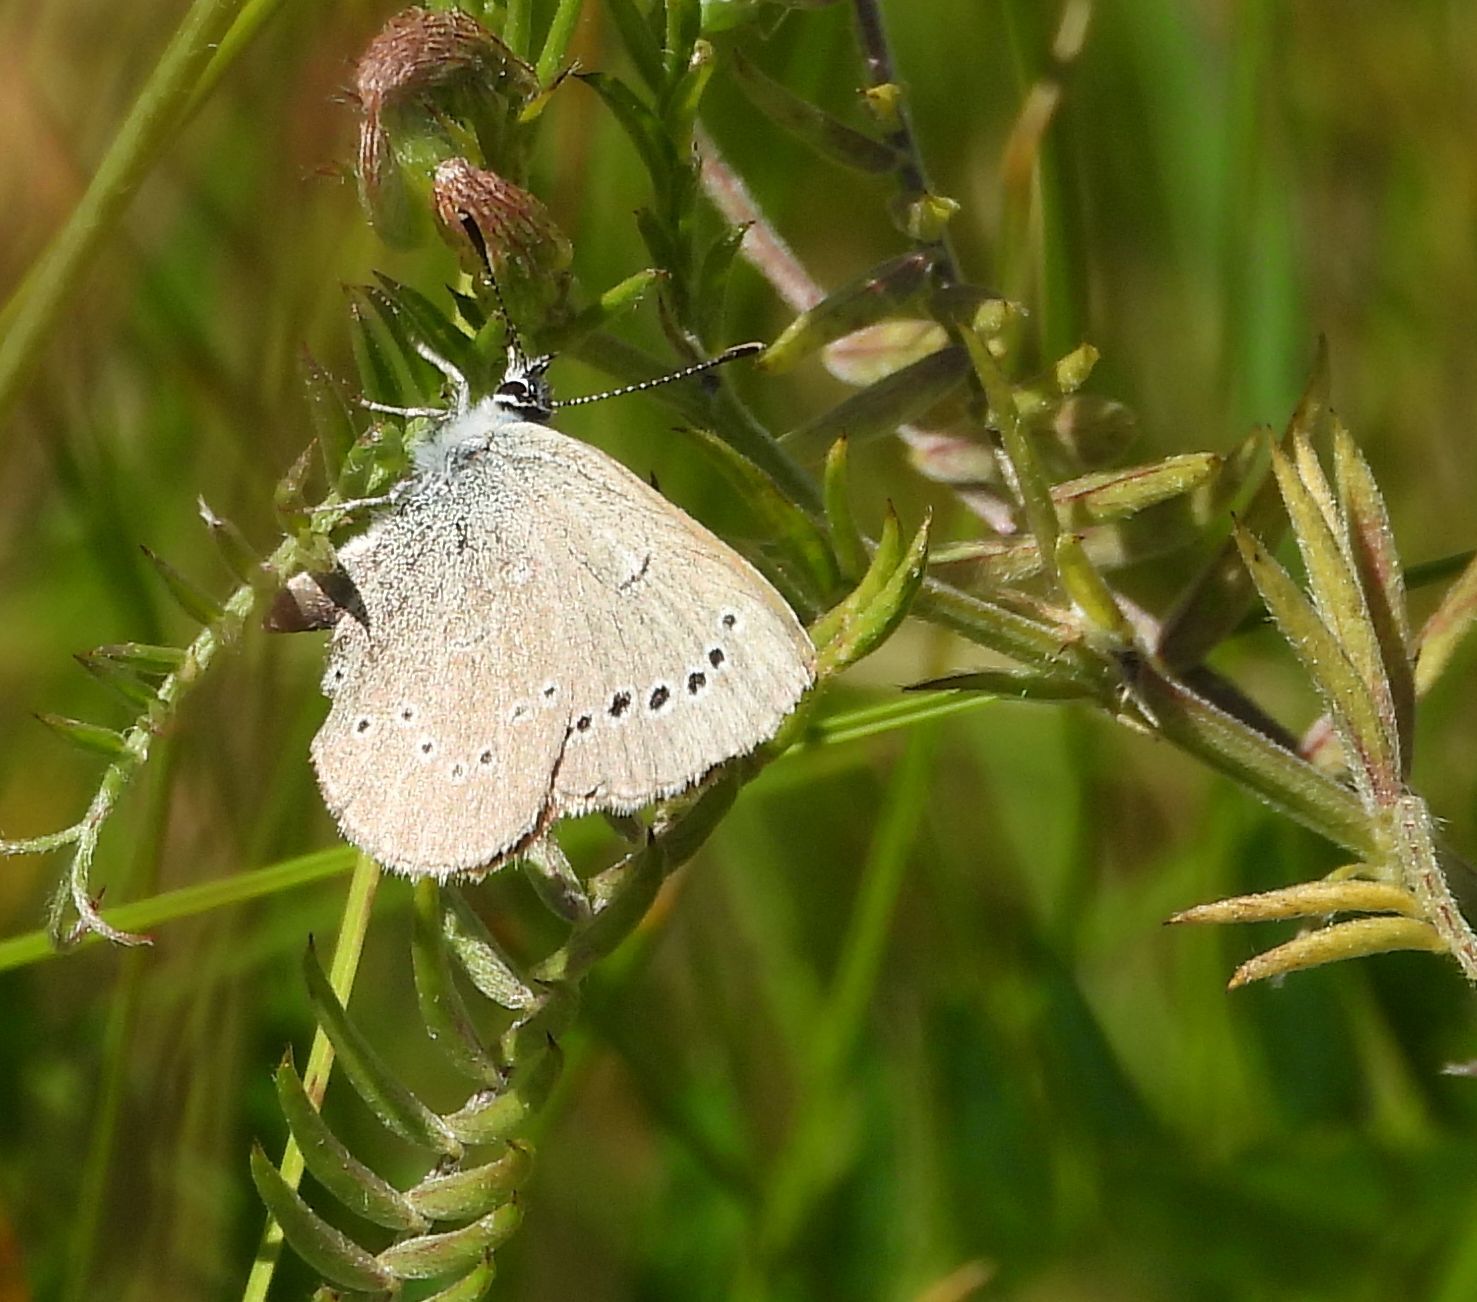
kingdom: Animalia
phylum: Arthropoda
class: Insecta
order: Lepidoptera
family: Lycaenidae
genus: Glaucopsyche
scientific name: Glaucopsyche lygdamus
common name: Silvery blue
